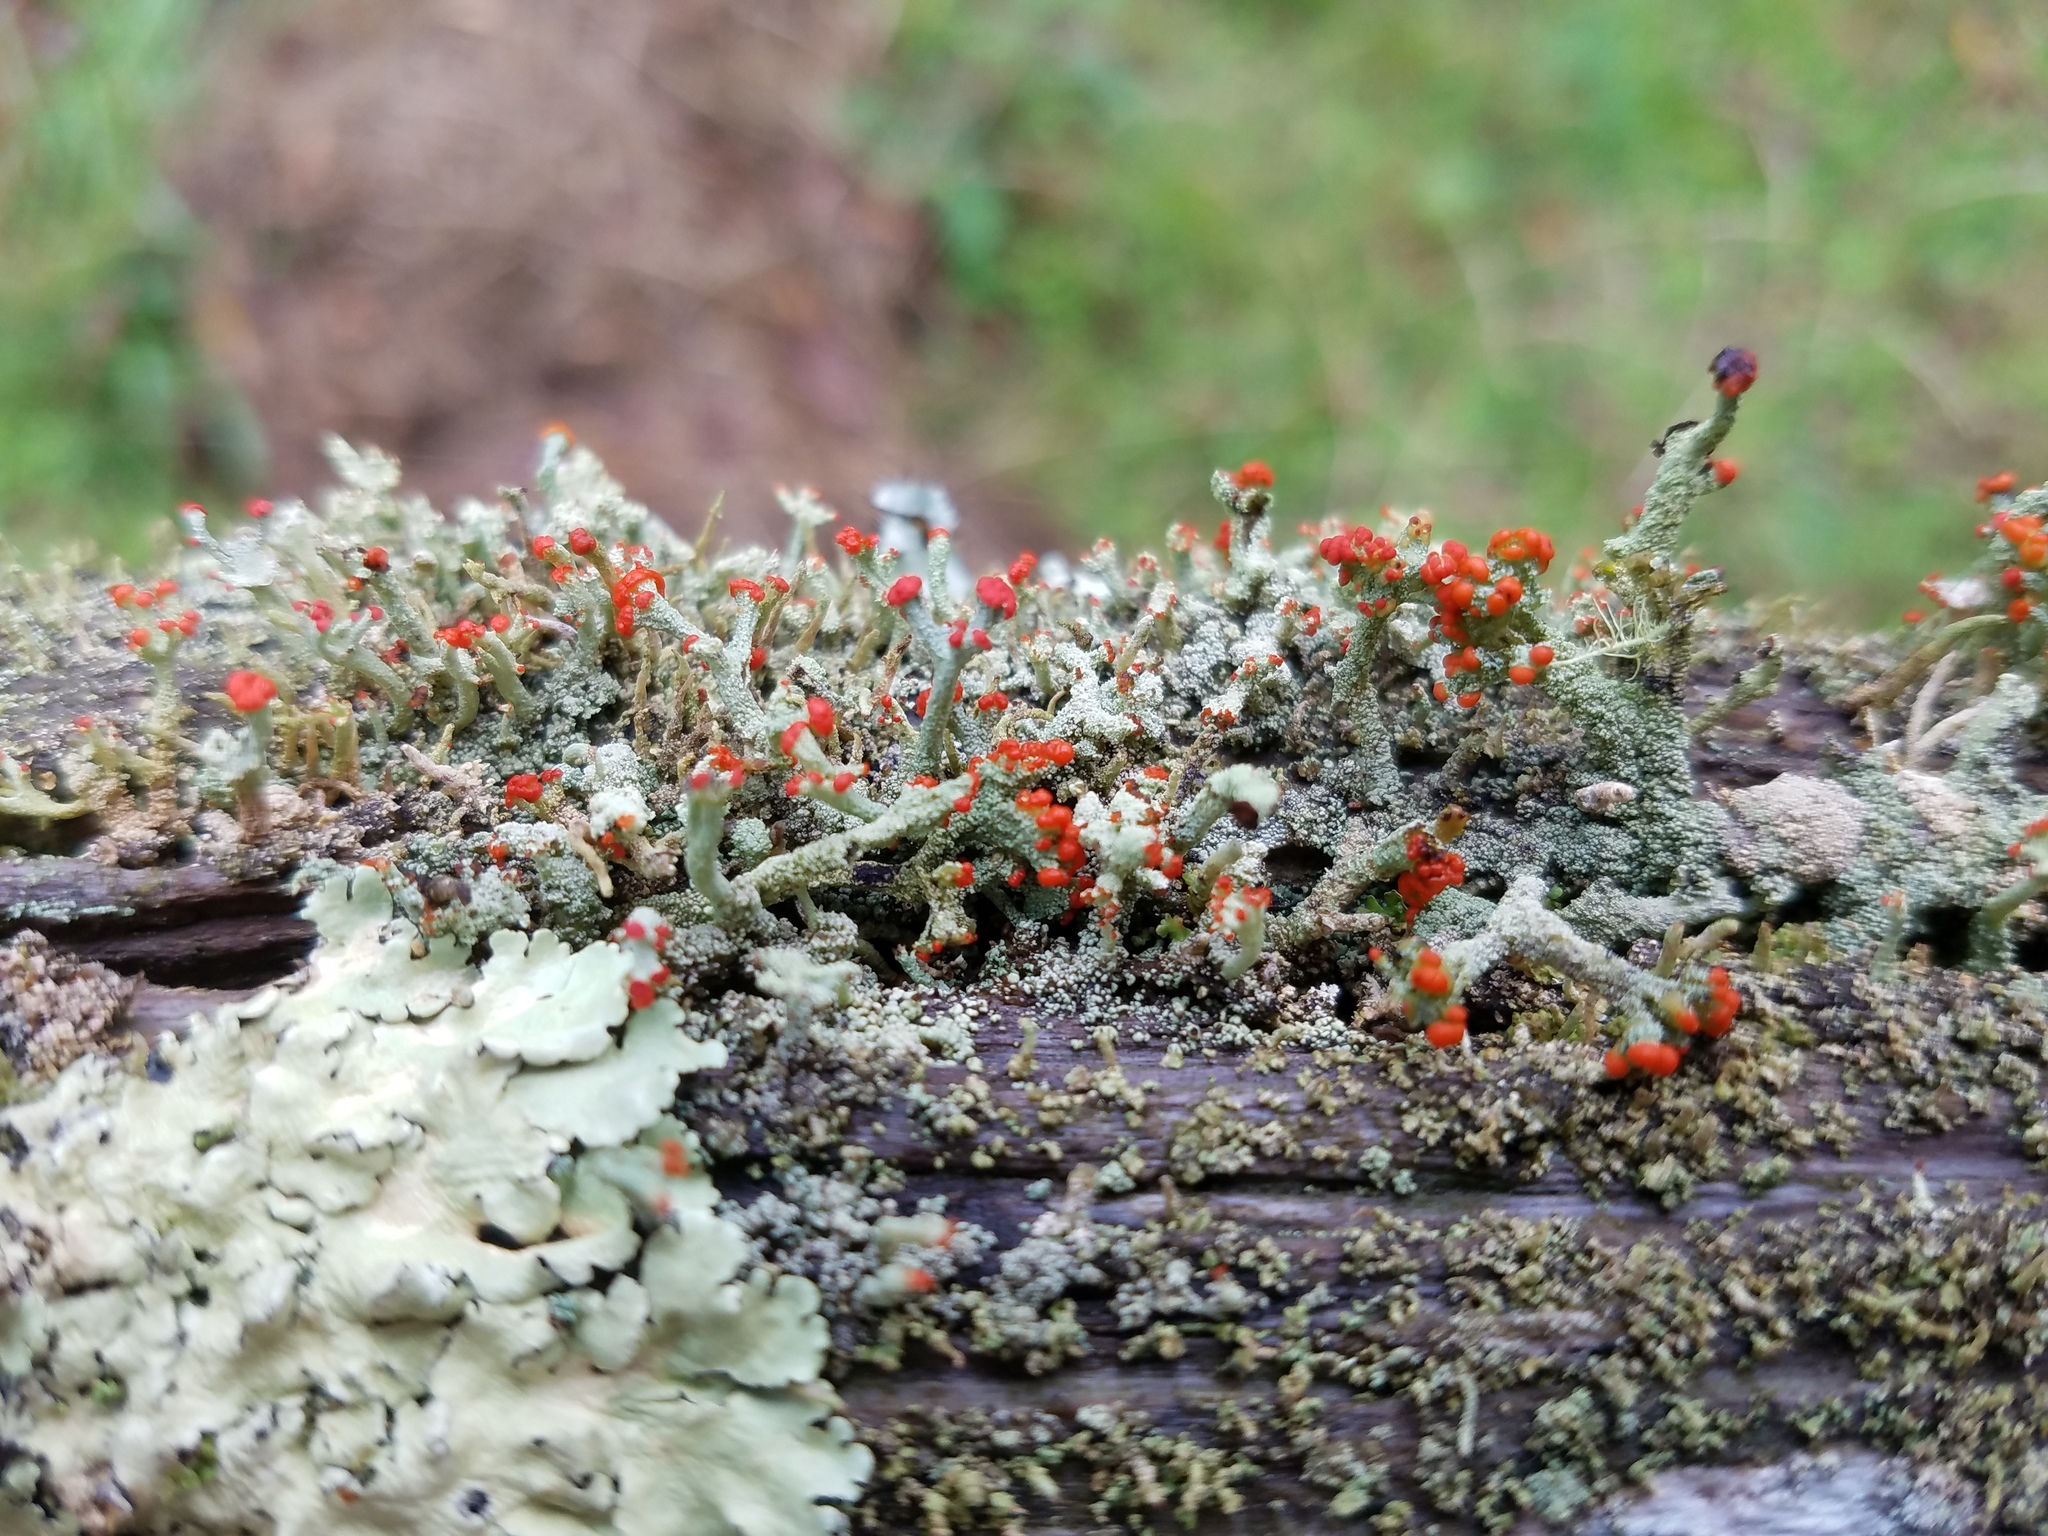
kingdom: Fungi
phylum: Ascomycota
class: Lecanoromycetes
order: Lecanorales
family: Cladoniaceae
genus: Cladonia
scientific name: Cladonia floerkeana
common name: Gritty british soldiers lichen
